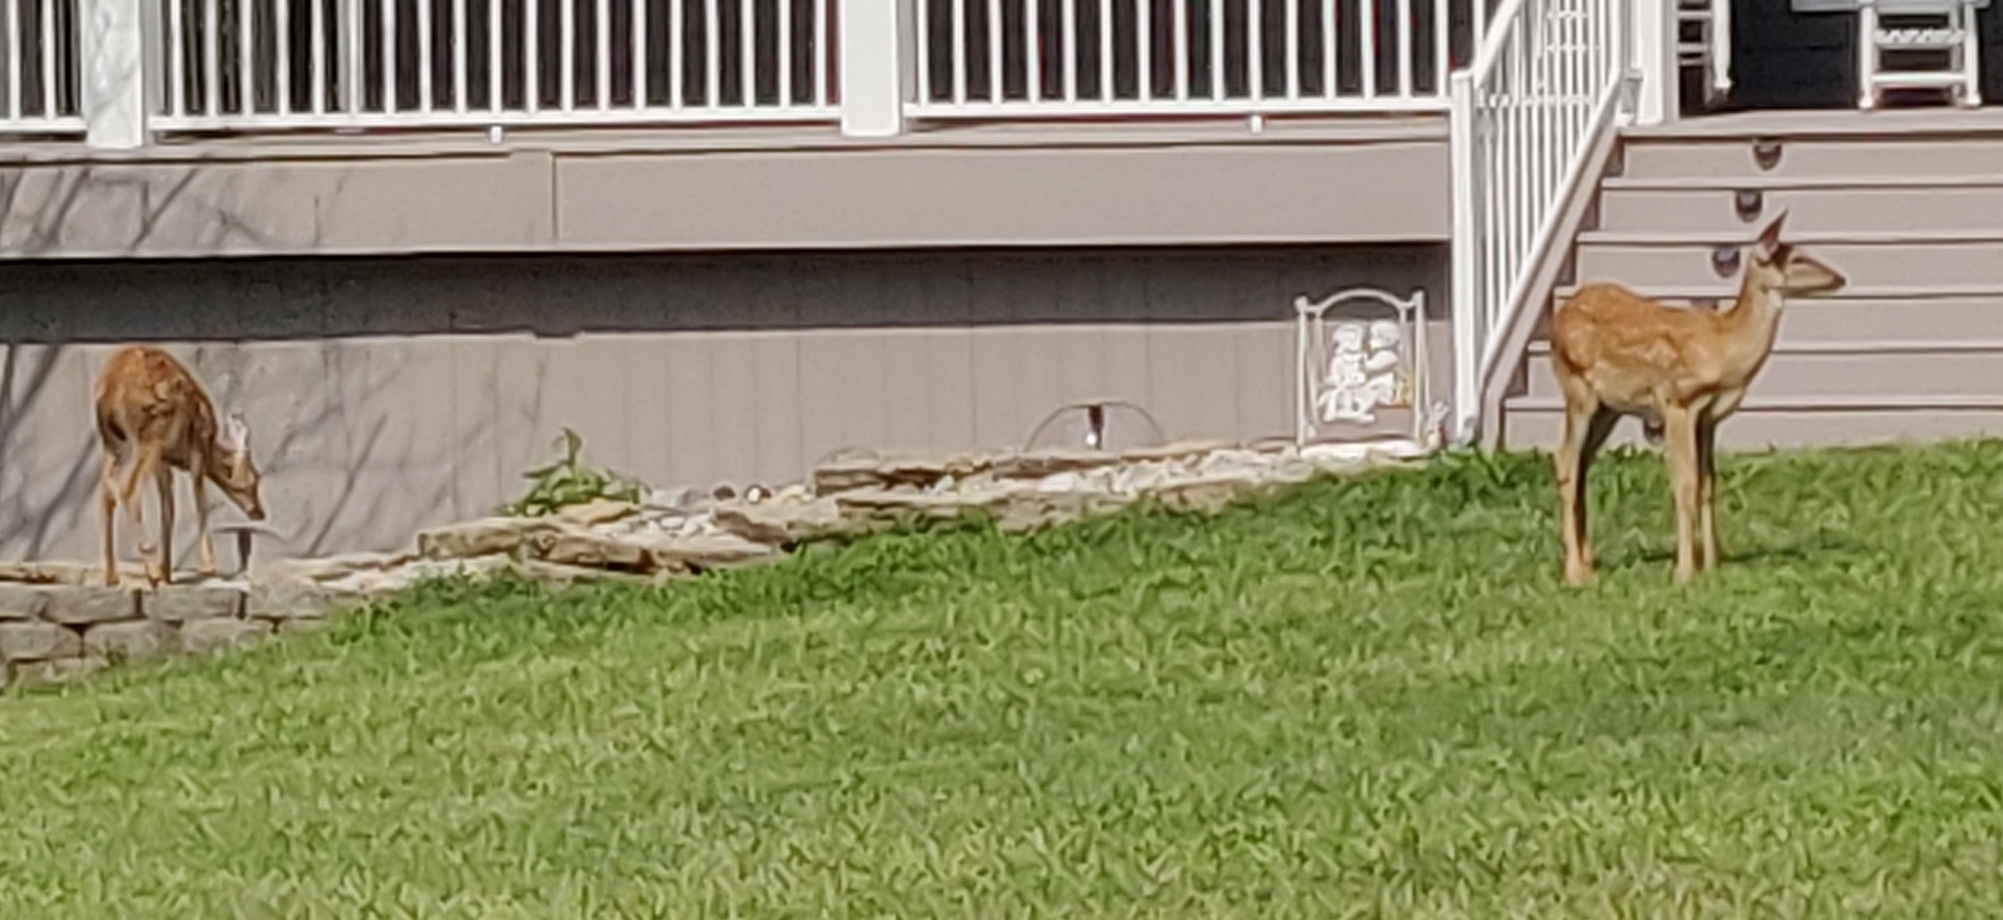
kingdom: Animalia
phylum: Chordata
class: Mammalia
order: Artiodactyla
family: Cervidae
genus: Odocoileus
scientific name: Odocoileus virginianus
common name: White-tailed deer
